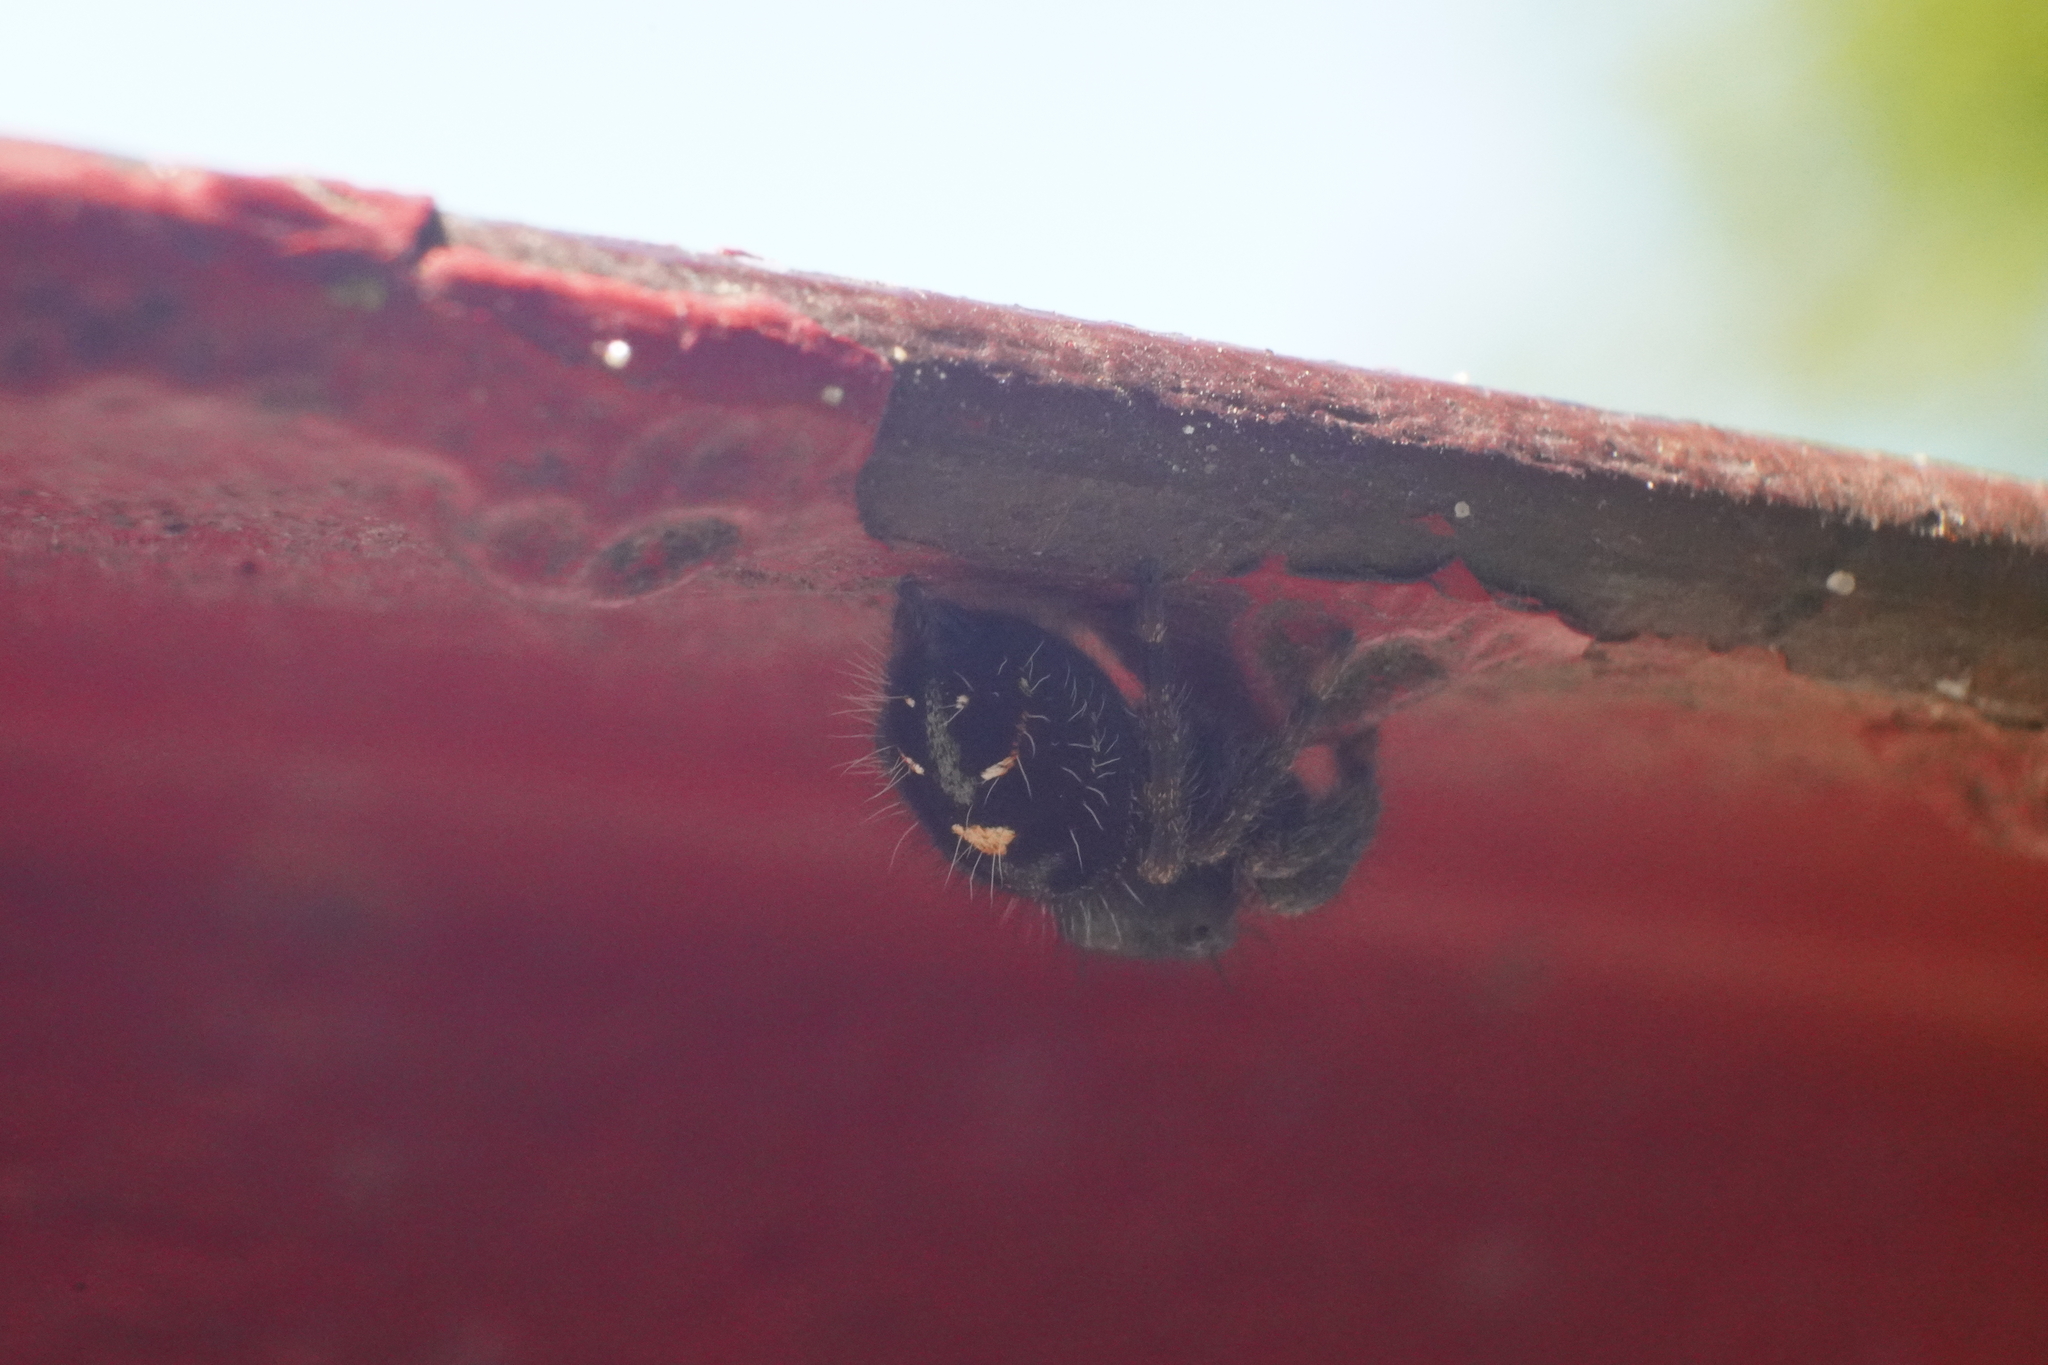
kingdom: Animalia
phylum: Arthropoda
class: Arachnida
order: Araneae
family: Salticidae
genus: Phidippus
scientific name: Phidippus audax
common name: Bold jumper
